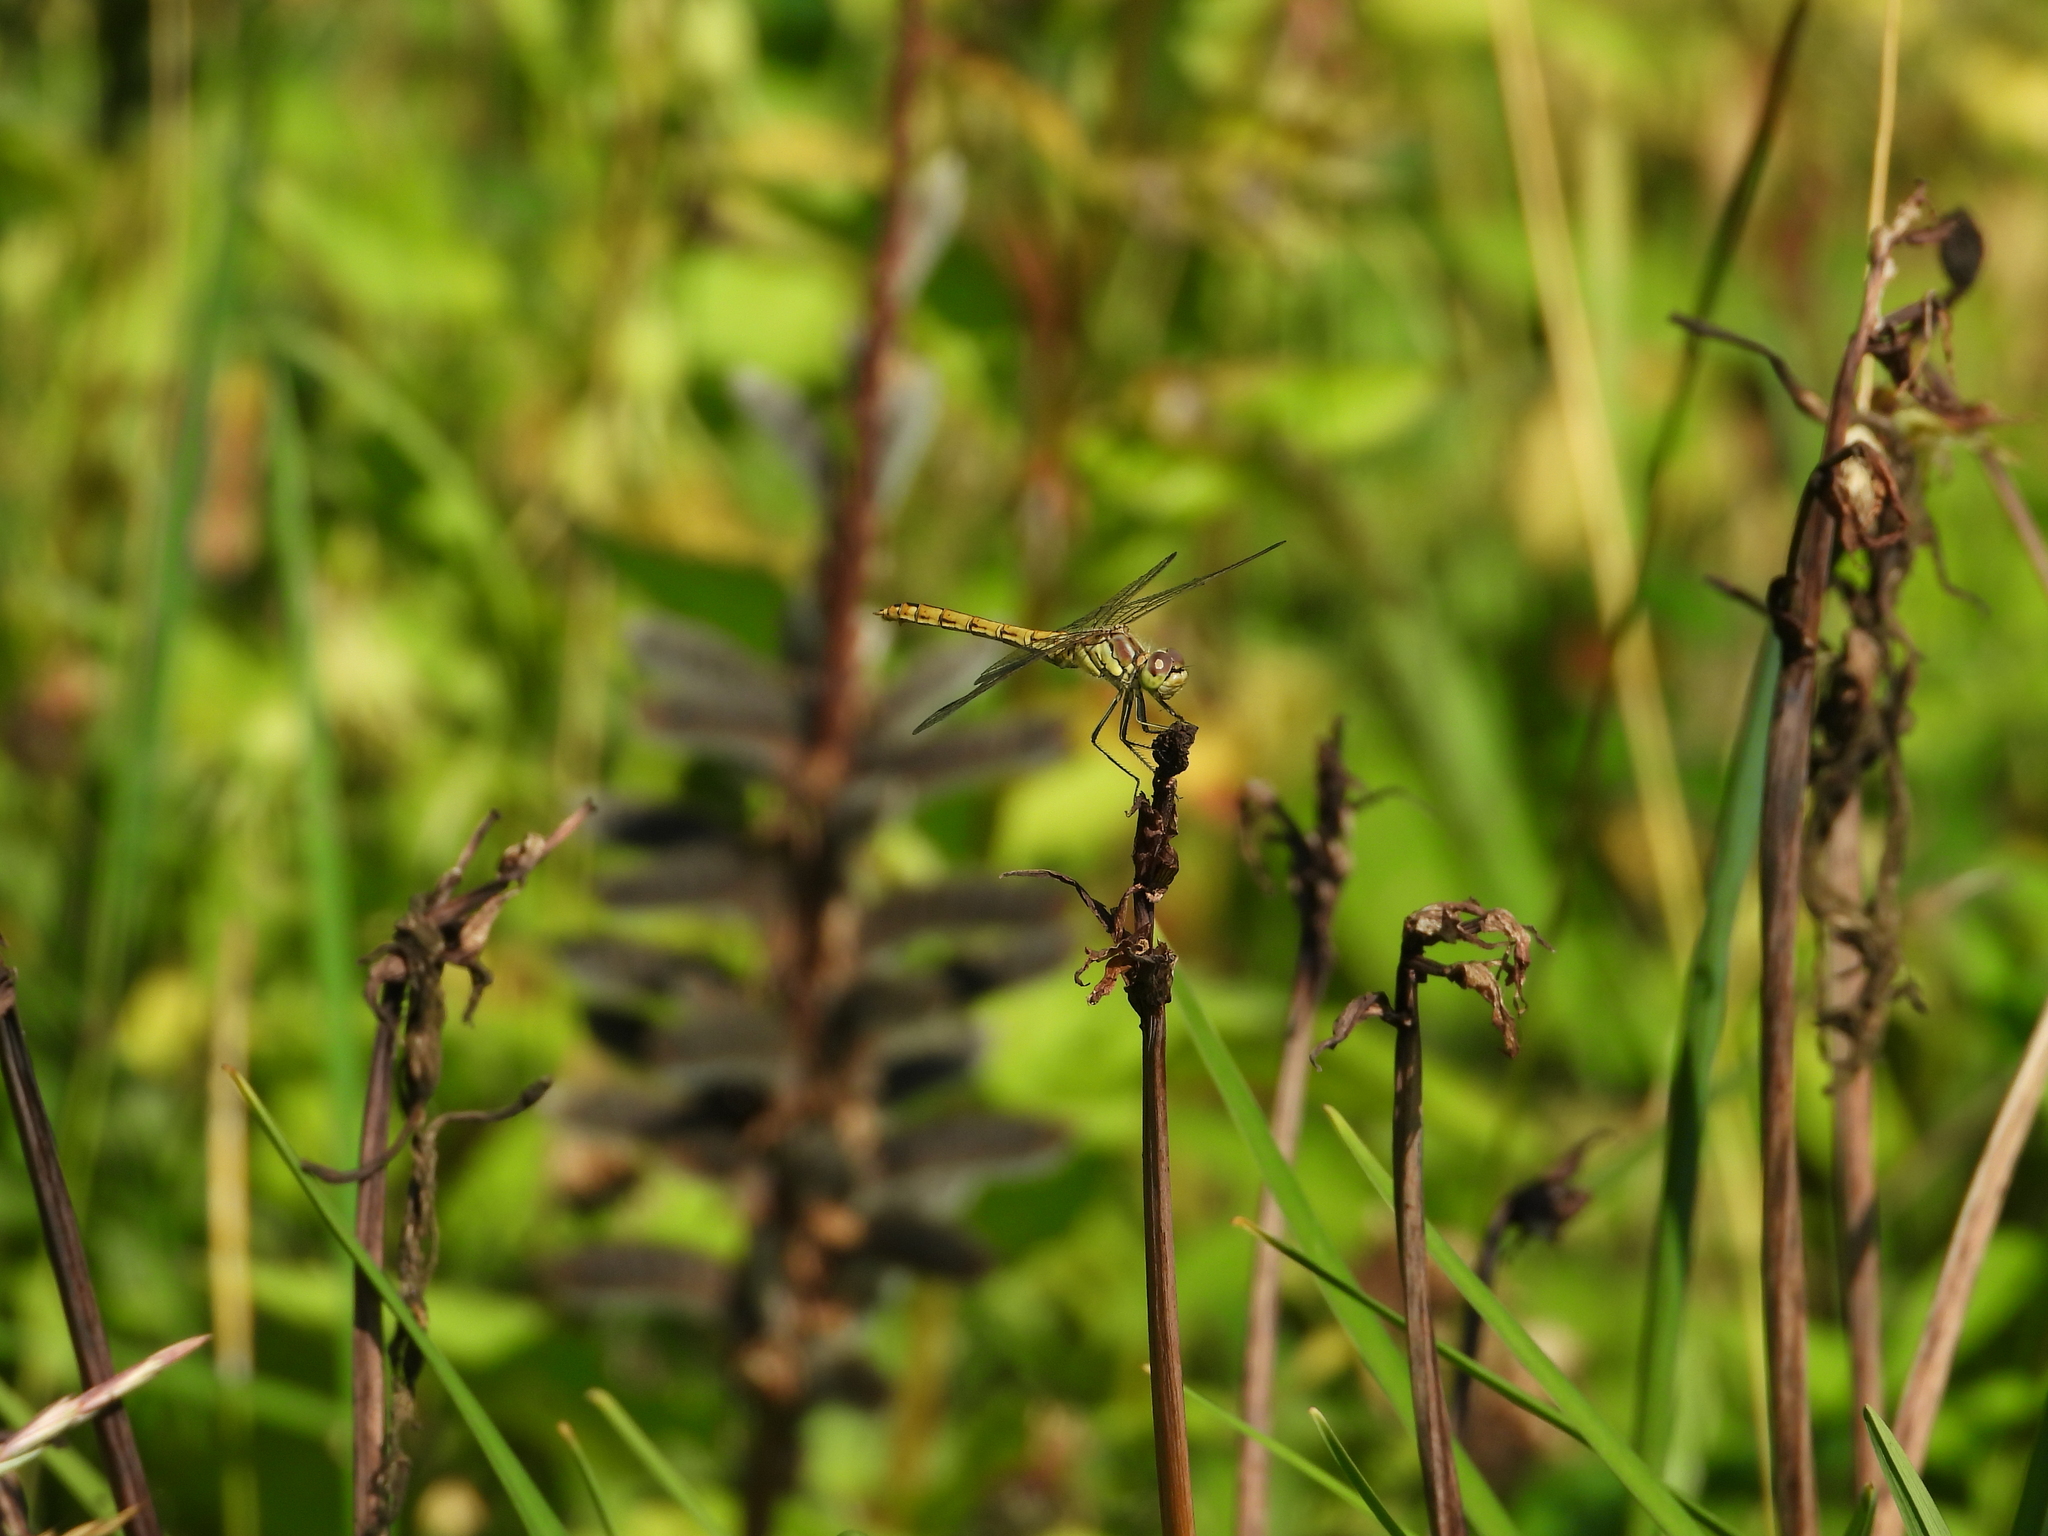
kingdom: Animalia
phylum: Arthropoda
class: Insecta
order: Odonata
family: Libellulidae
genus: Sympetrum
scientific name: Sympetrum vulgatum
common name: Vagrant darter
